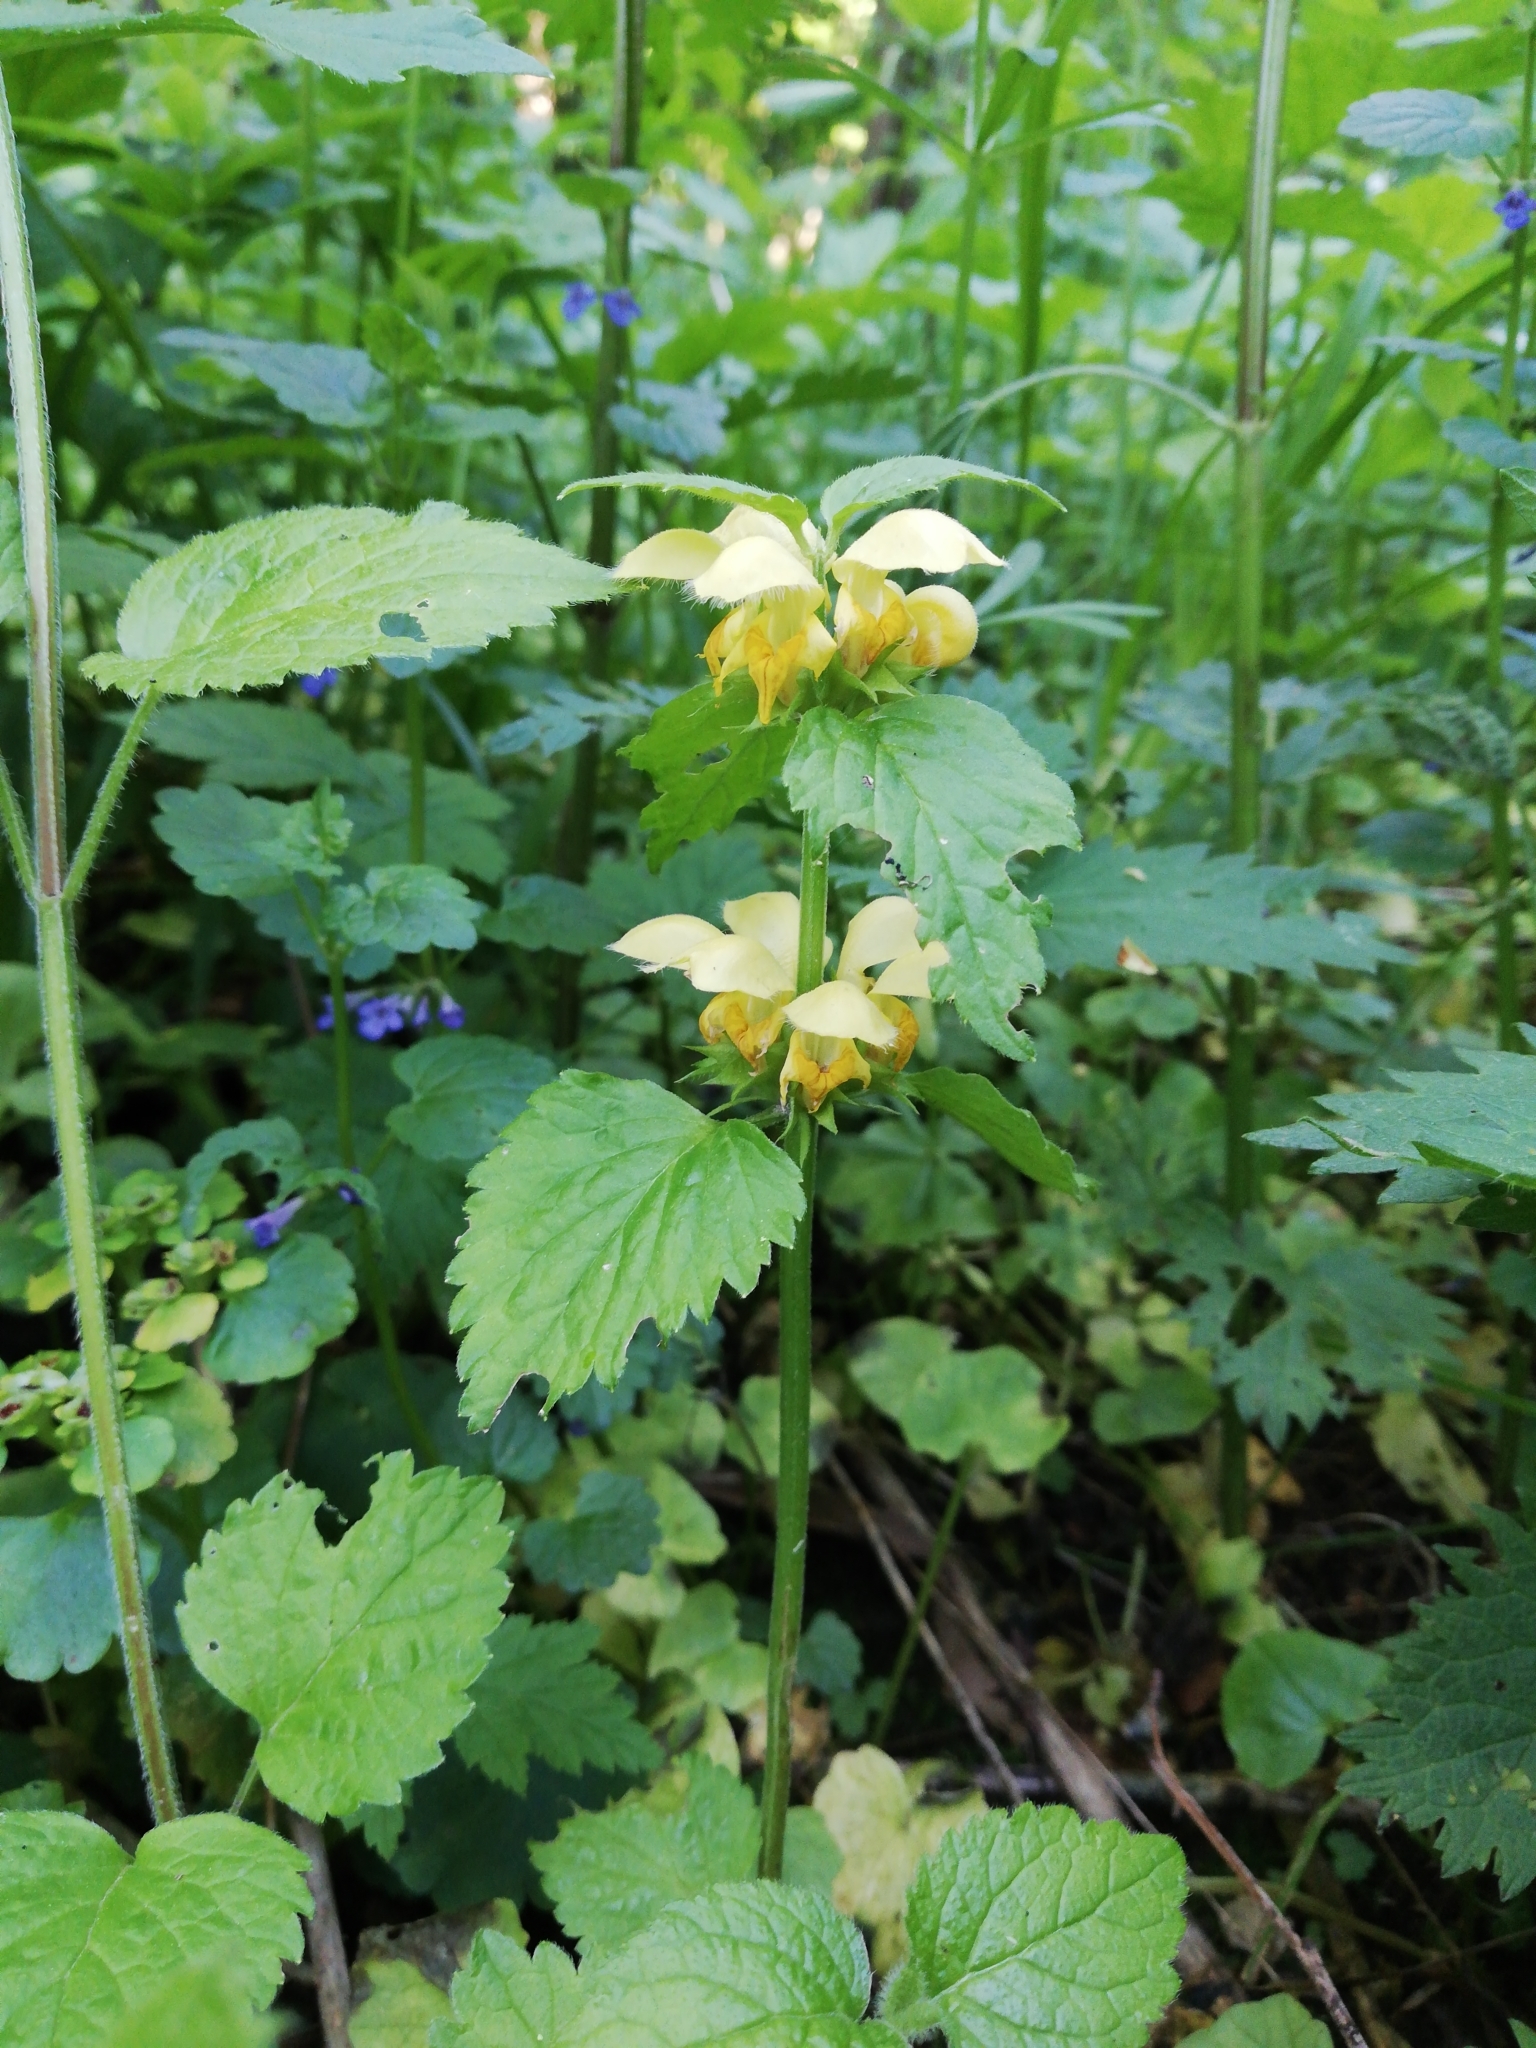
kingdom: Plantae
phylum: Tracheophyta
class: Magnoliopsida
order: Lamiales
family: Lamiaceae
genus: Lamium
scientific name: Lamium galeobdolon
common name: Yellow archangel
